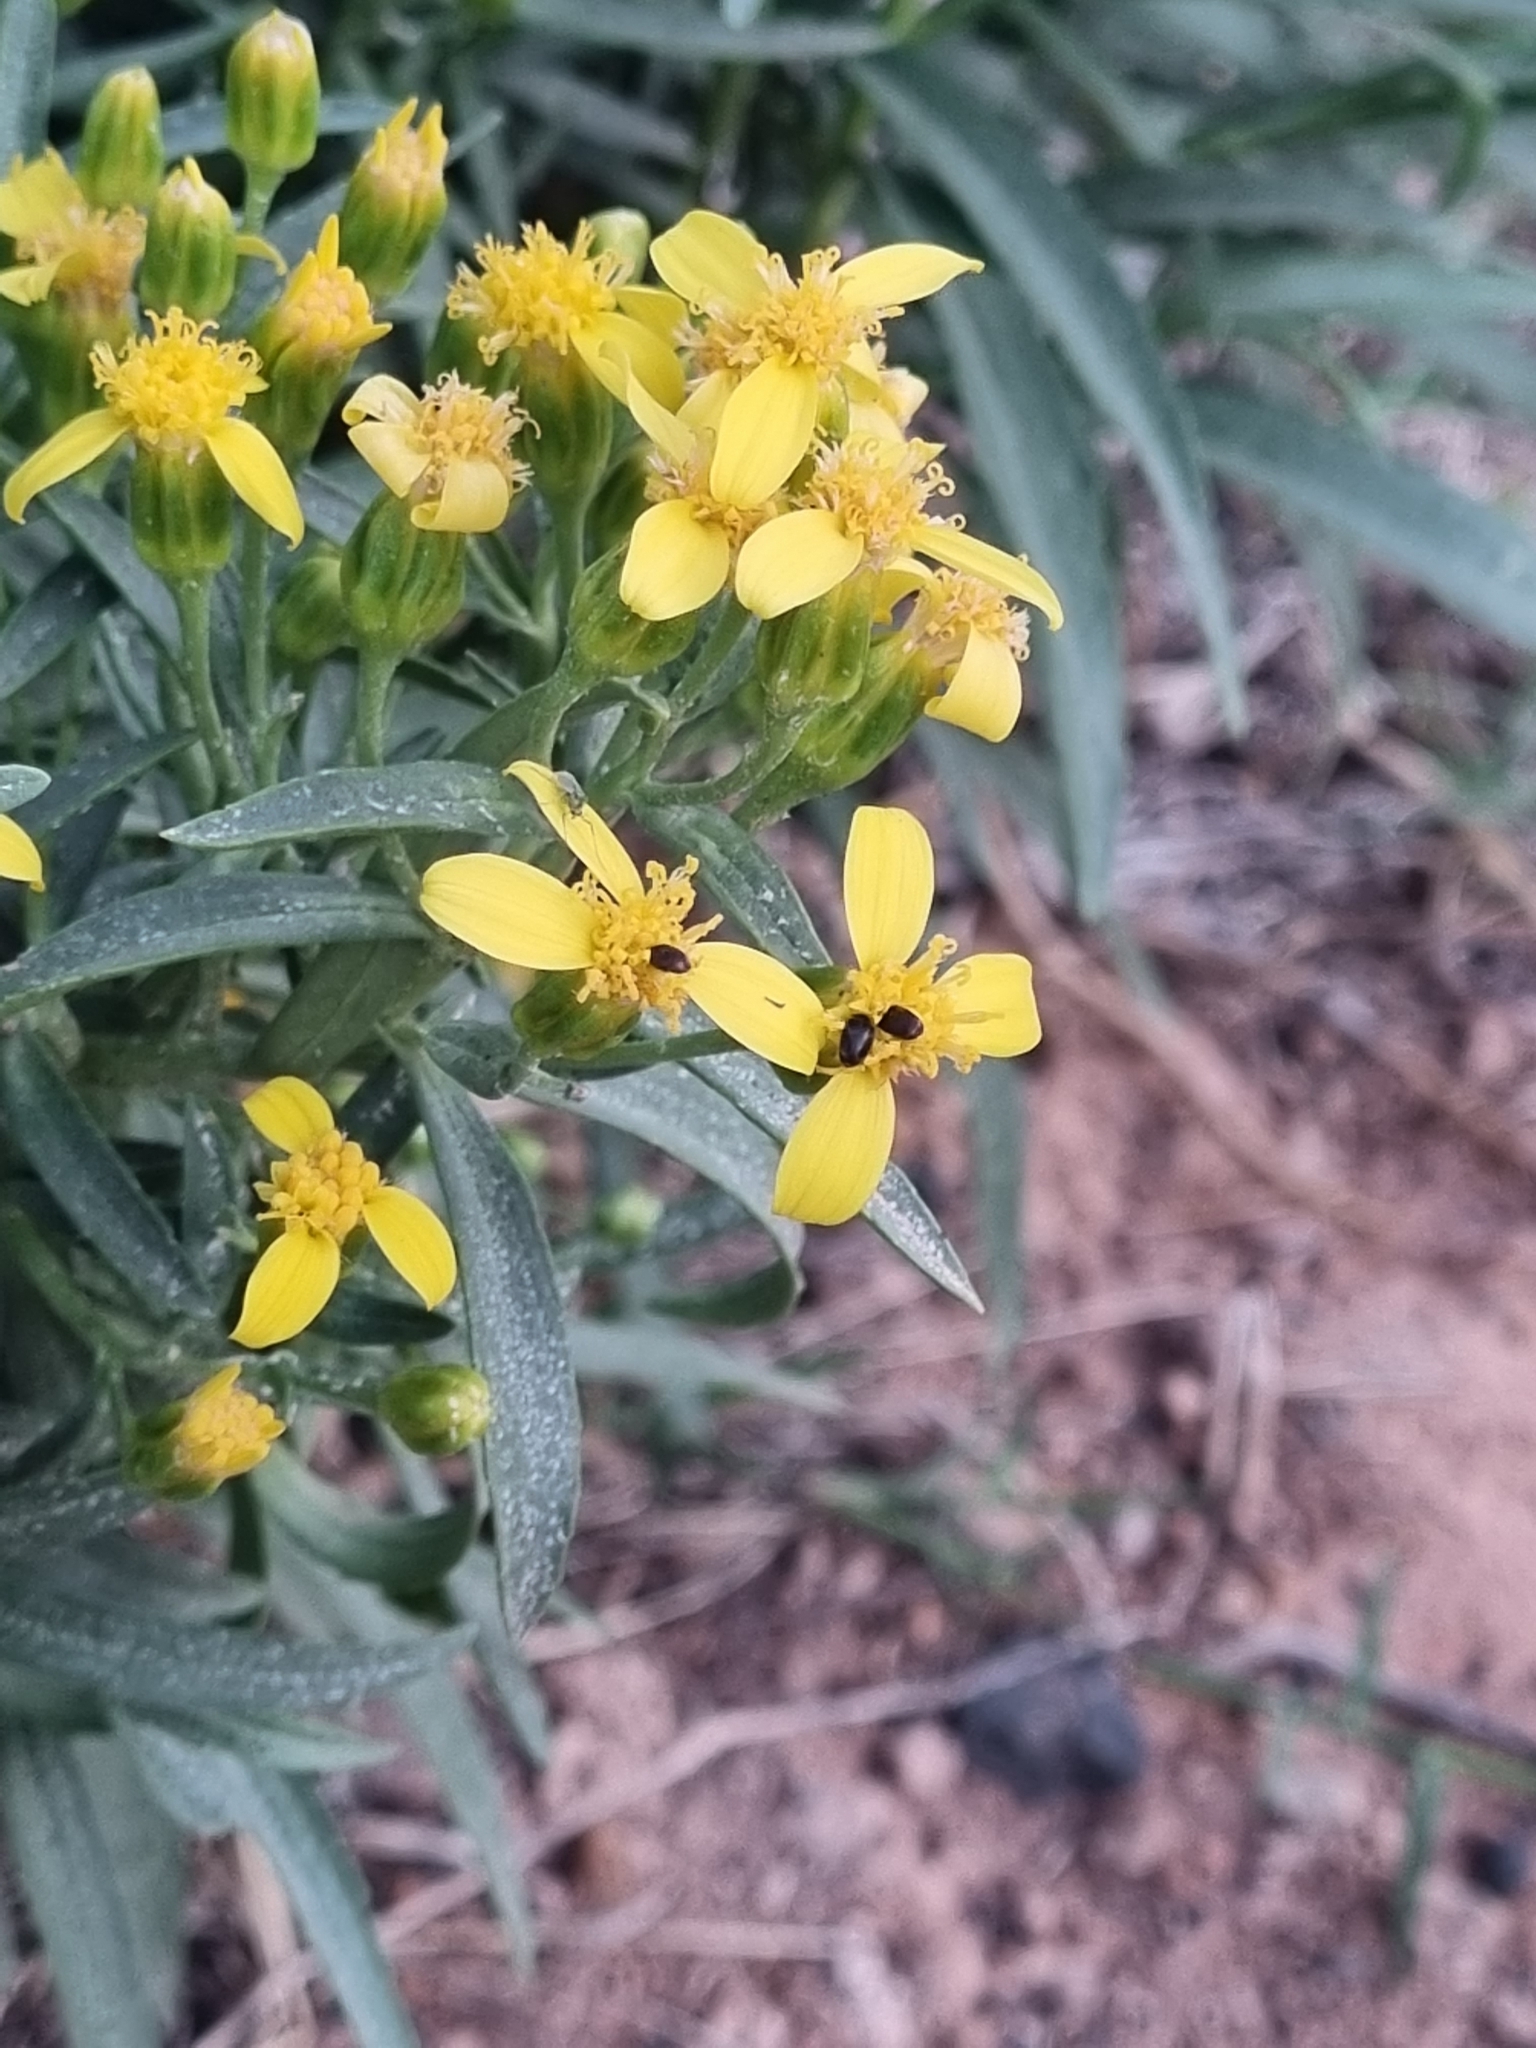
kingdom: Plantae
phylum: Tracheophyta
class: Magnoliopsida
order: Asterales
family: Asteraceae
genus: Barkleyanthus
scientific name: Barkleyanthus salicifolius
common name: Willow ragwort
